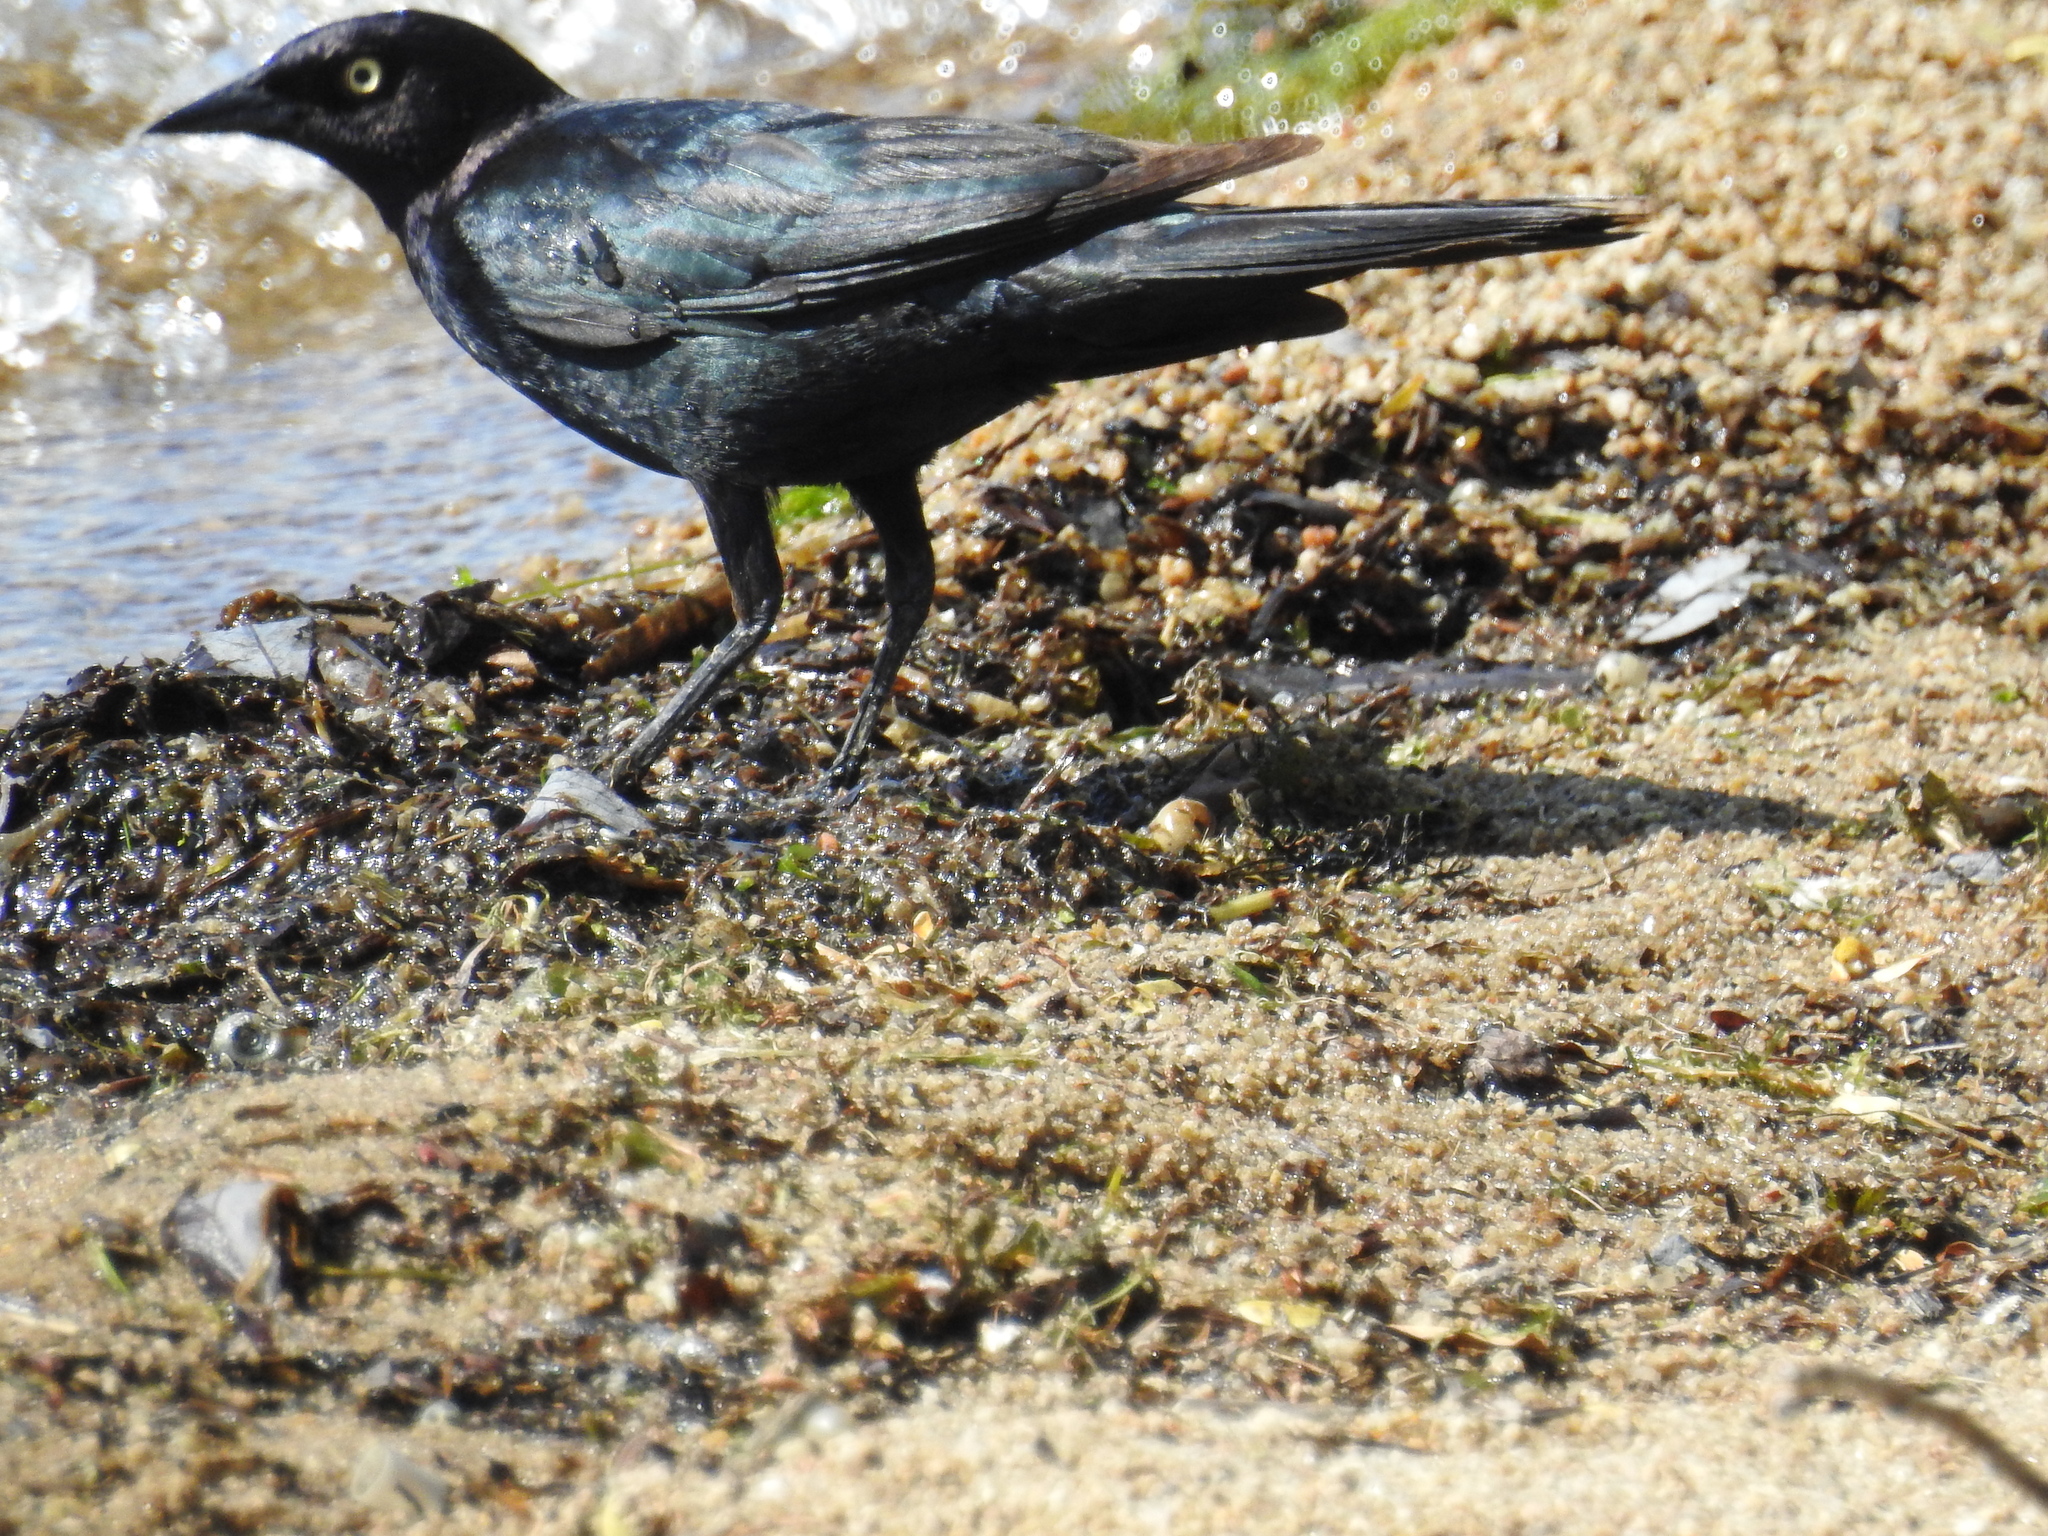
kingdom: Animalia
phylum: Chordata
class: Aves
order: Passeriformes
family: Icteridae
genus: Euphagus
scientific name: Euphagus cyanocephalus
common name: Brewer's blackbird
